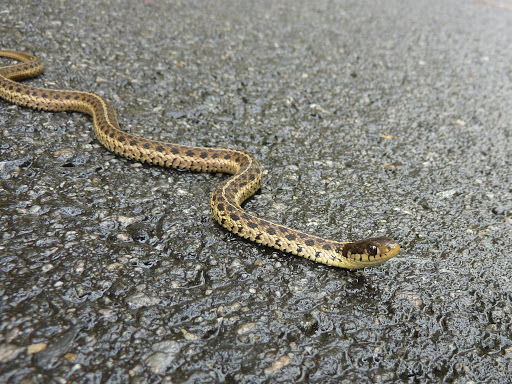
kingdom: Animalia
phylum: Chordata
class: Squamata
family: Colubridae
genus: Thamnophis
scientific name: Thamnophis sirtalis
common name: Common garter snake
